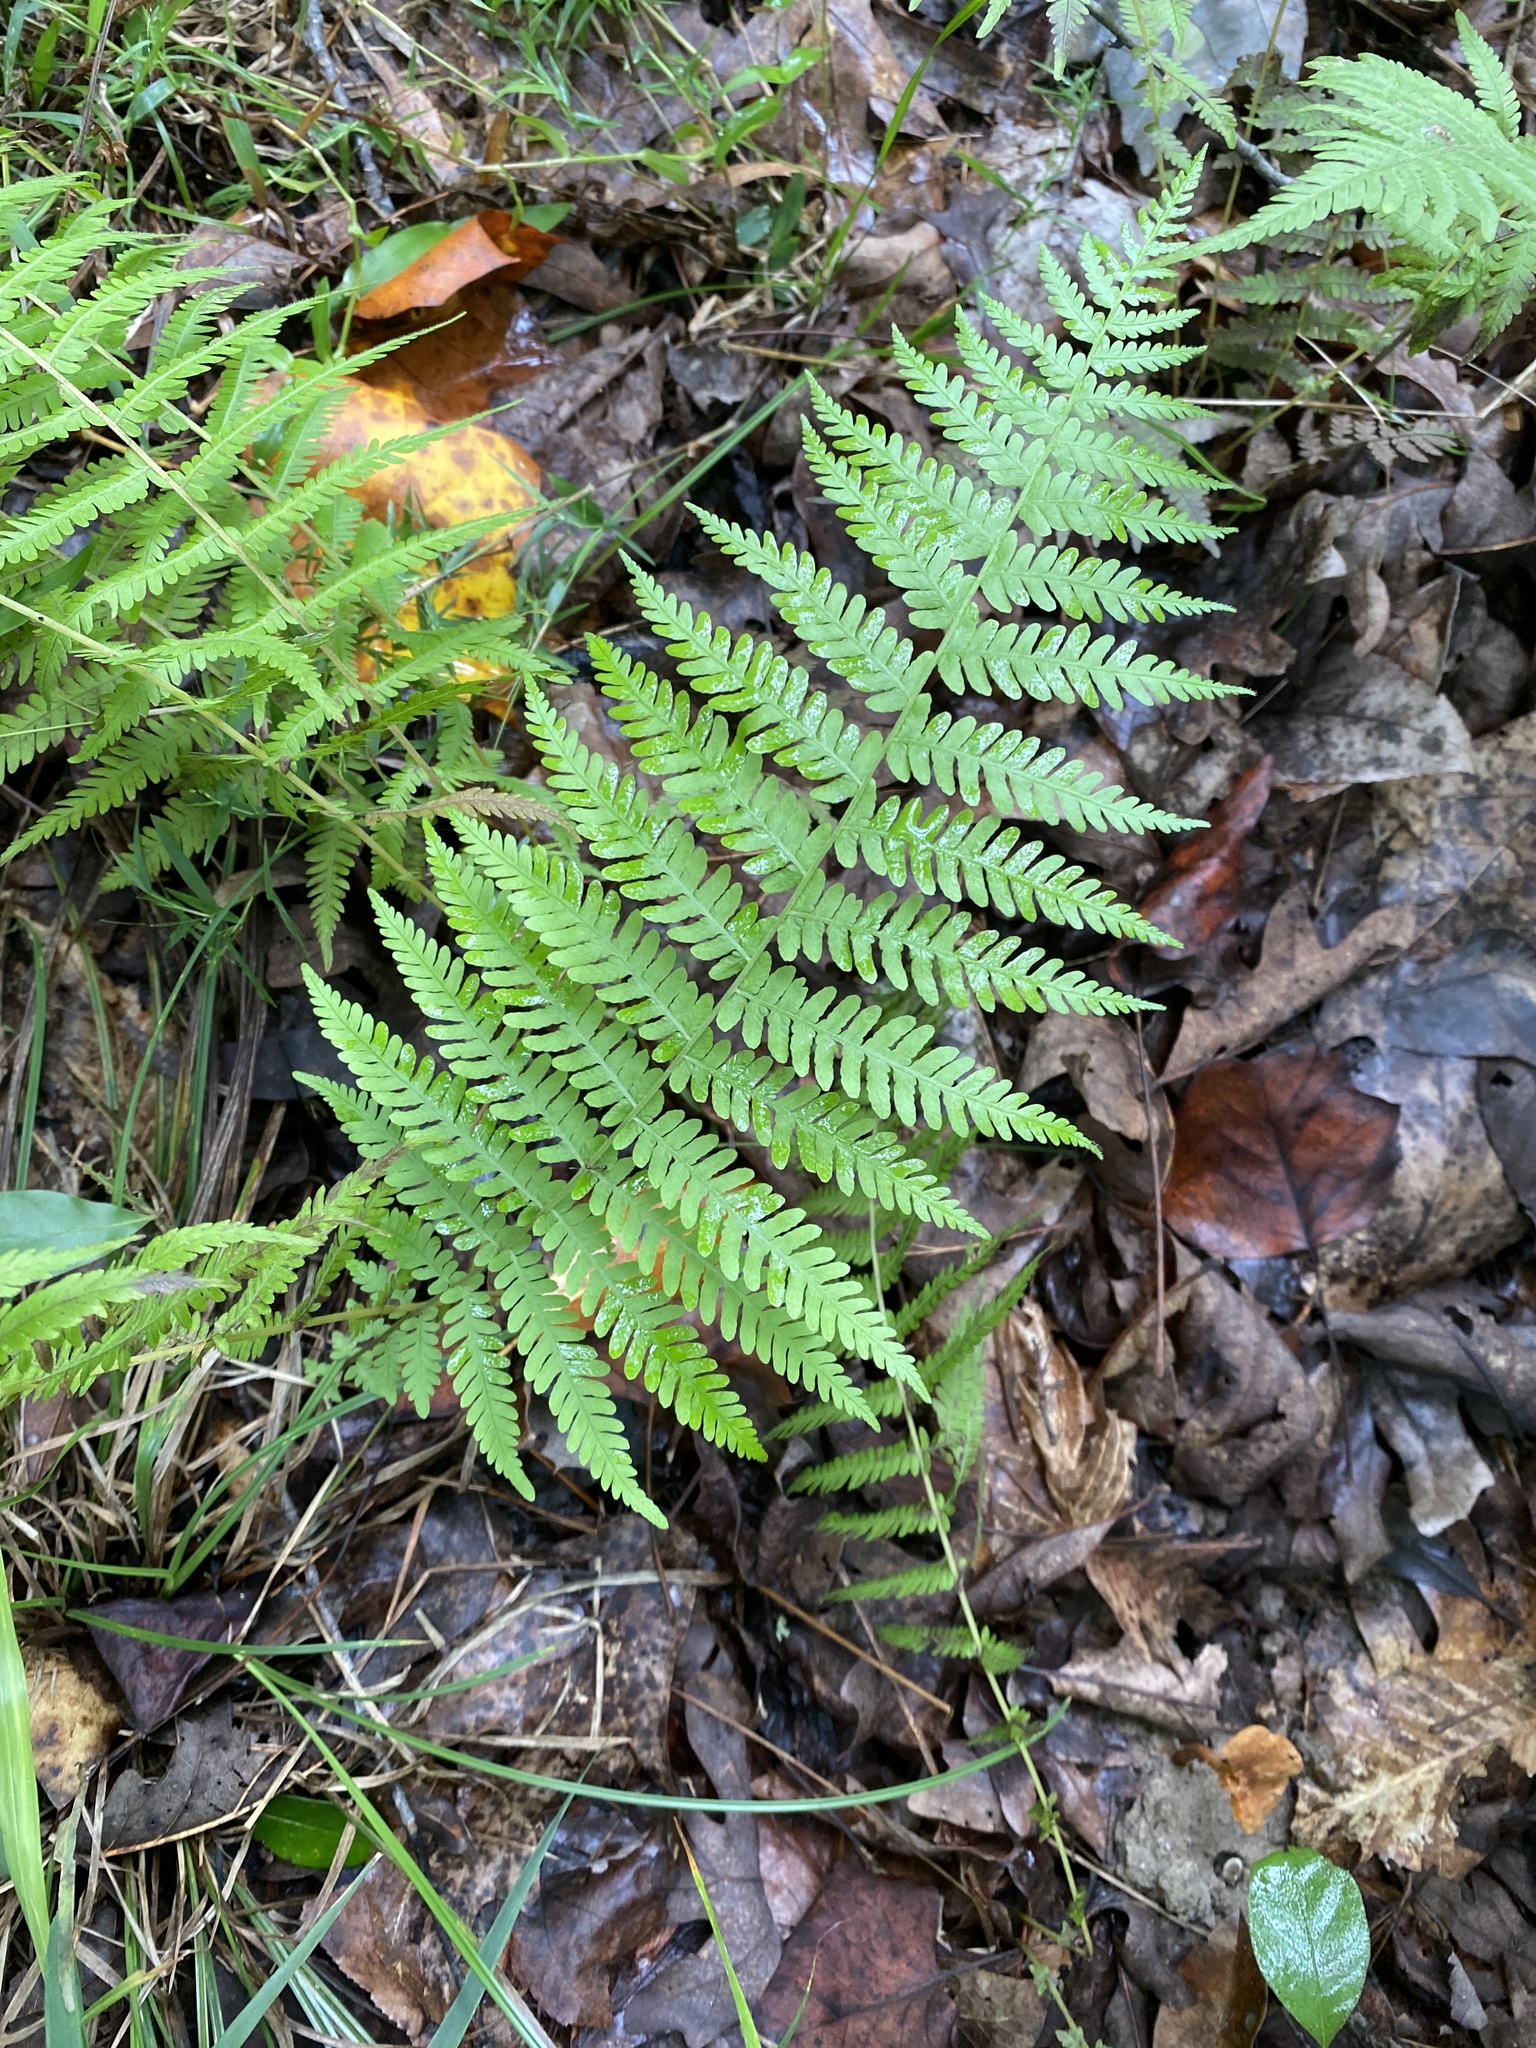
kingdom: Plantae
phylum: Tracheophyta
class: Polypodiopsida
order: Polypodiales
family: Thelypteridaceae
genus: Amauropelta
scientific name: Amauropelta noveboracensis
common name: New york fern
